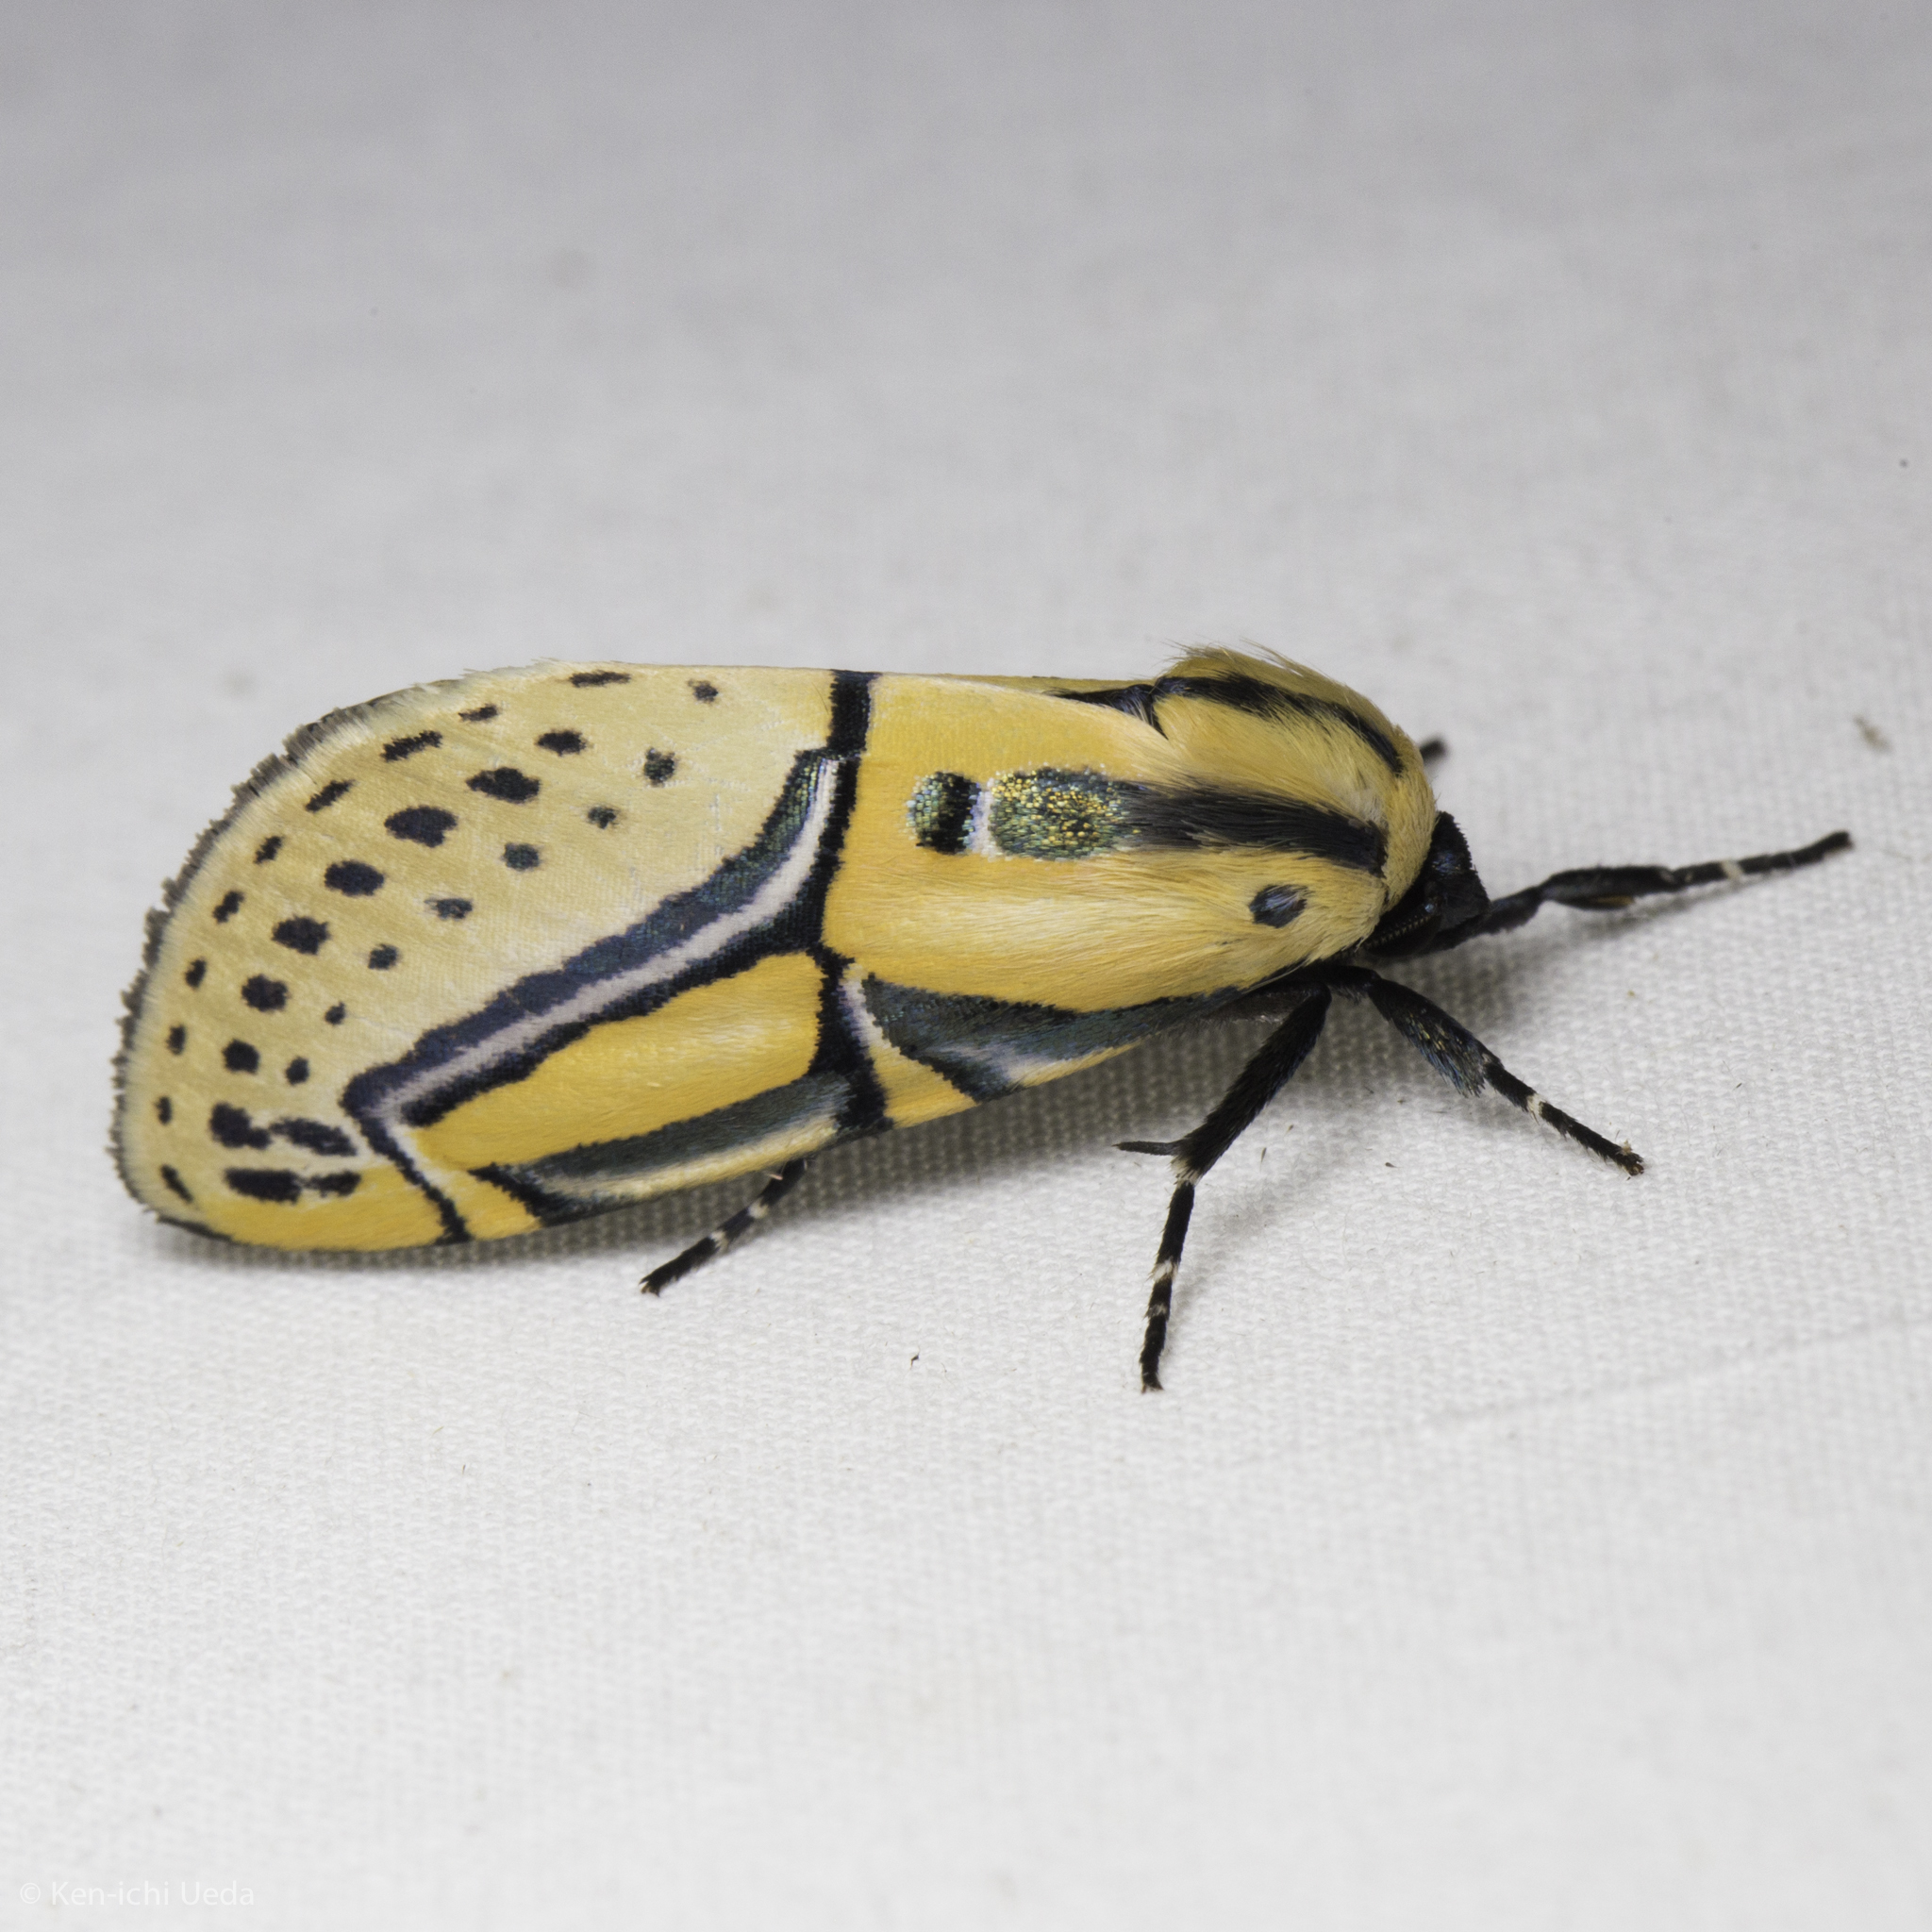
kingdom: Animalia
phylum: Arthropoda
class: Insecta
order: Lepidoptera
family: Erebidae
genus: Diphthera
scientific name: Diphthera festiva
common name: Hieroglyphic moth
